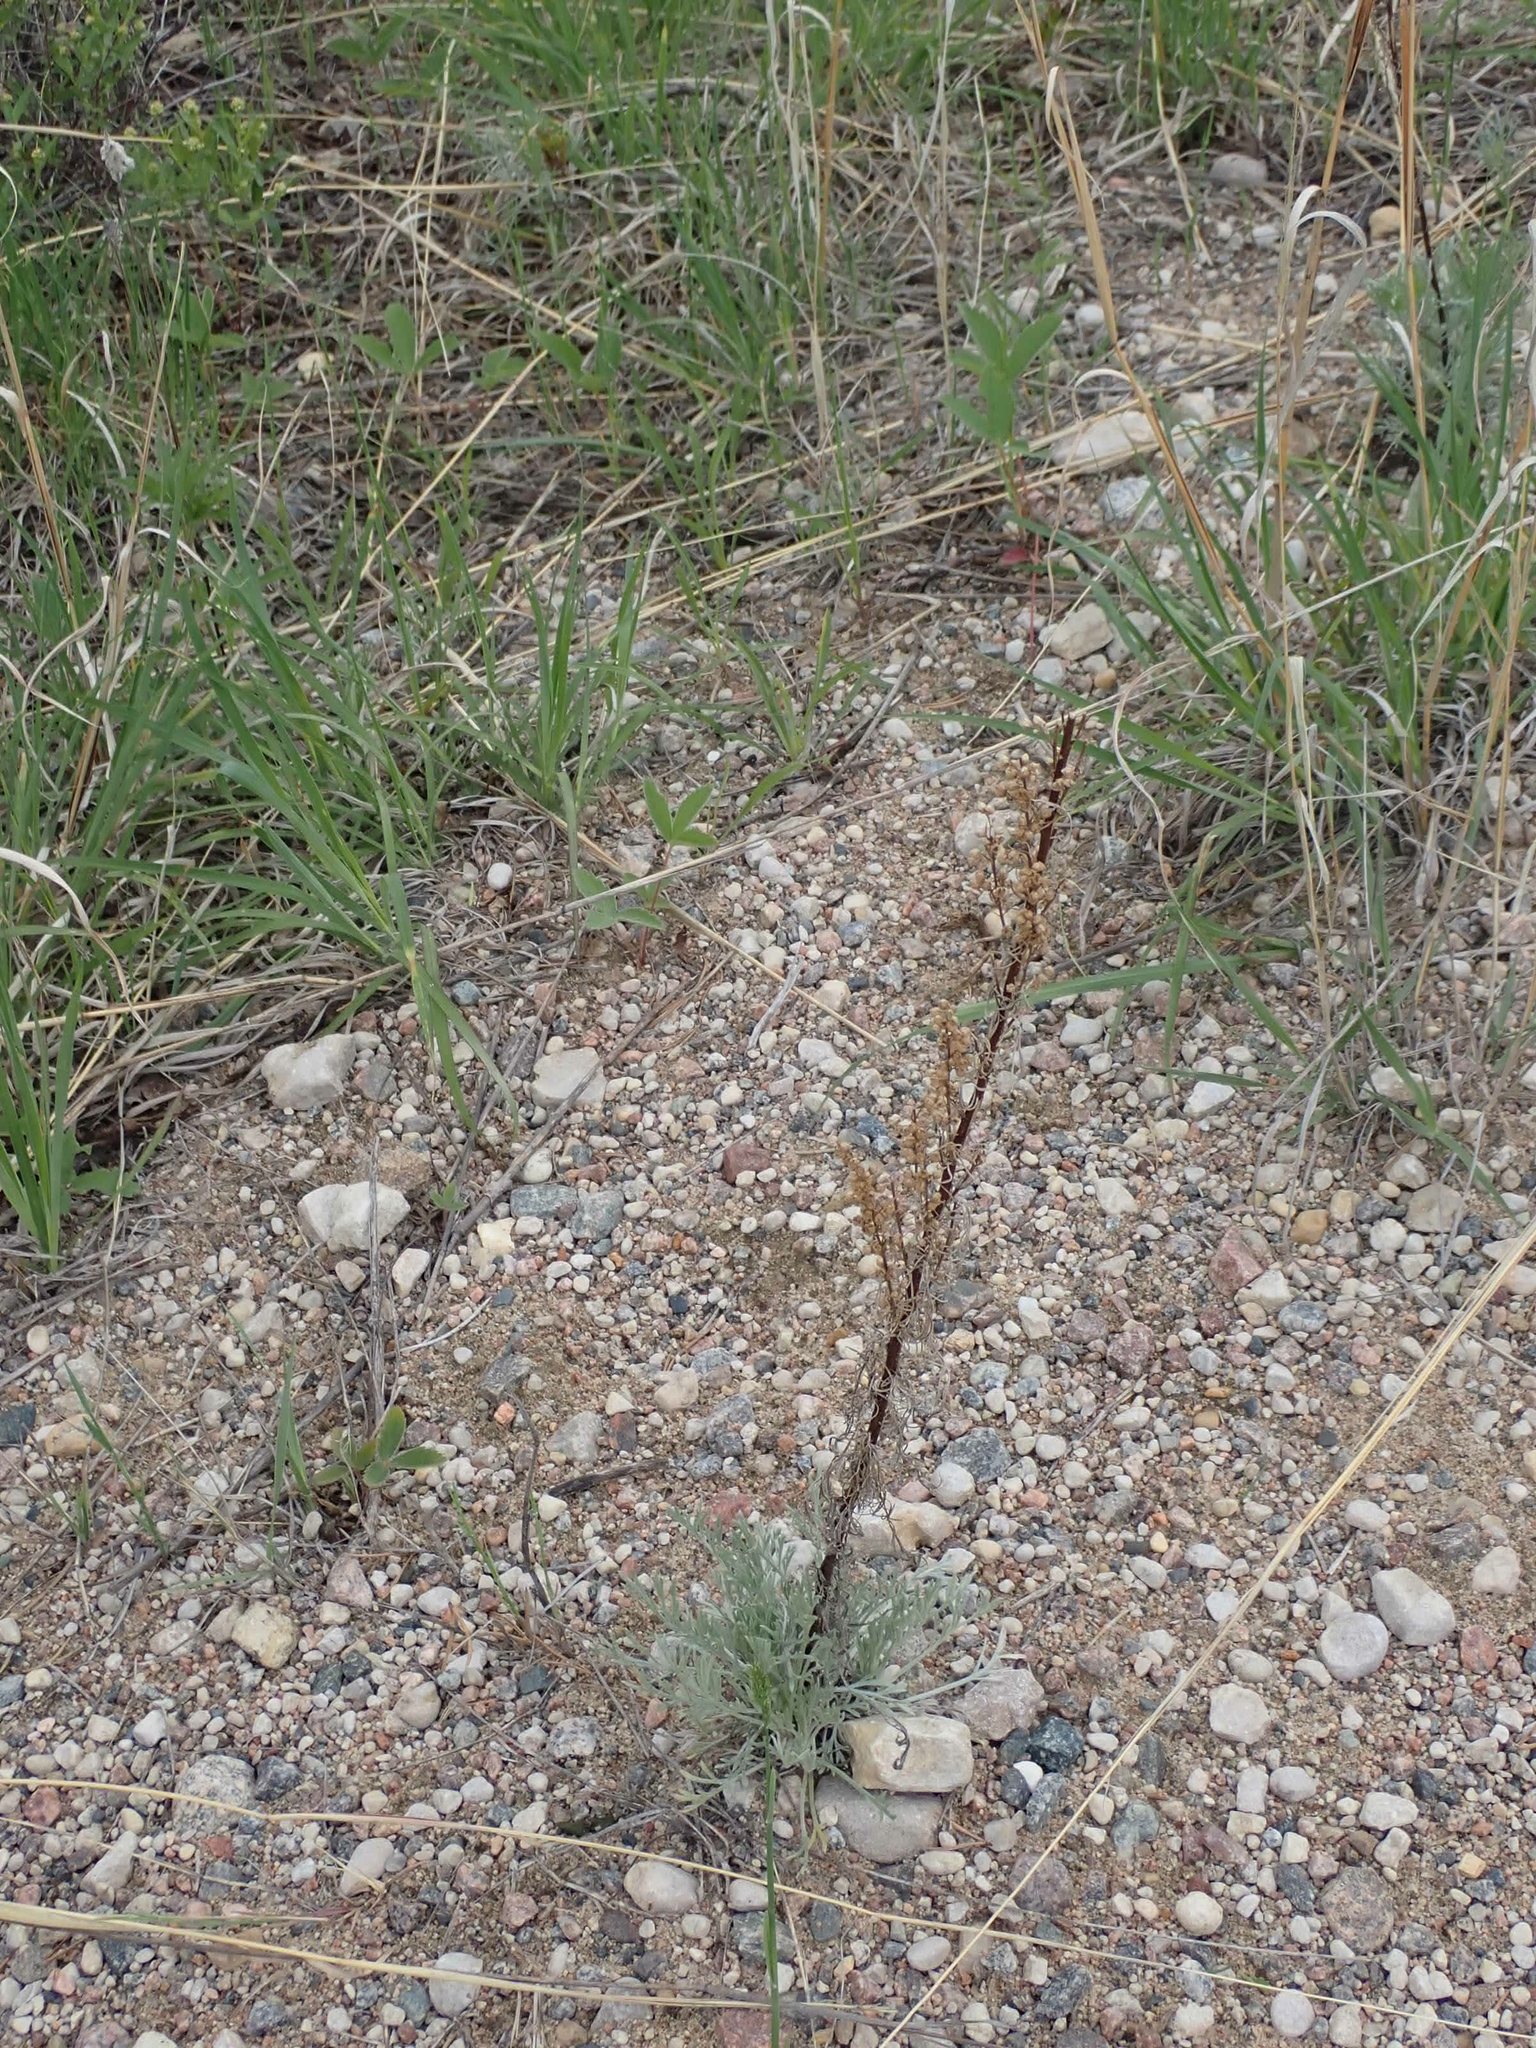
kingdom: Plantae
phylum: Tracheophyta
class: Magnoliopsida
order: Asterales
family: Asteraceae
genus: Artemisia
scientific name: Artemisia campestris
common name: Field wormwood
